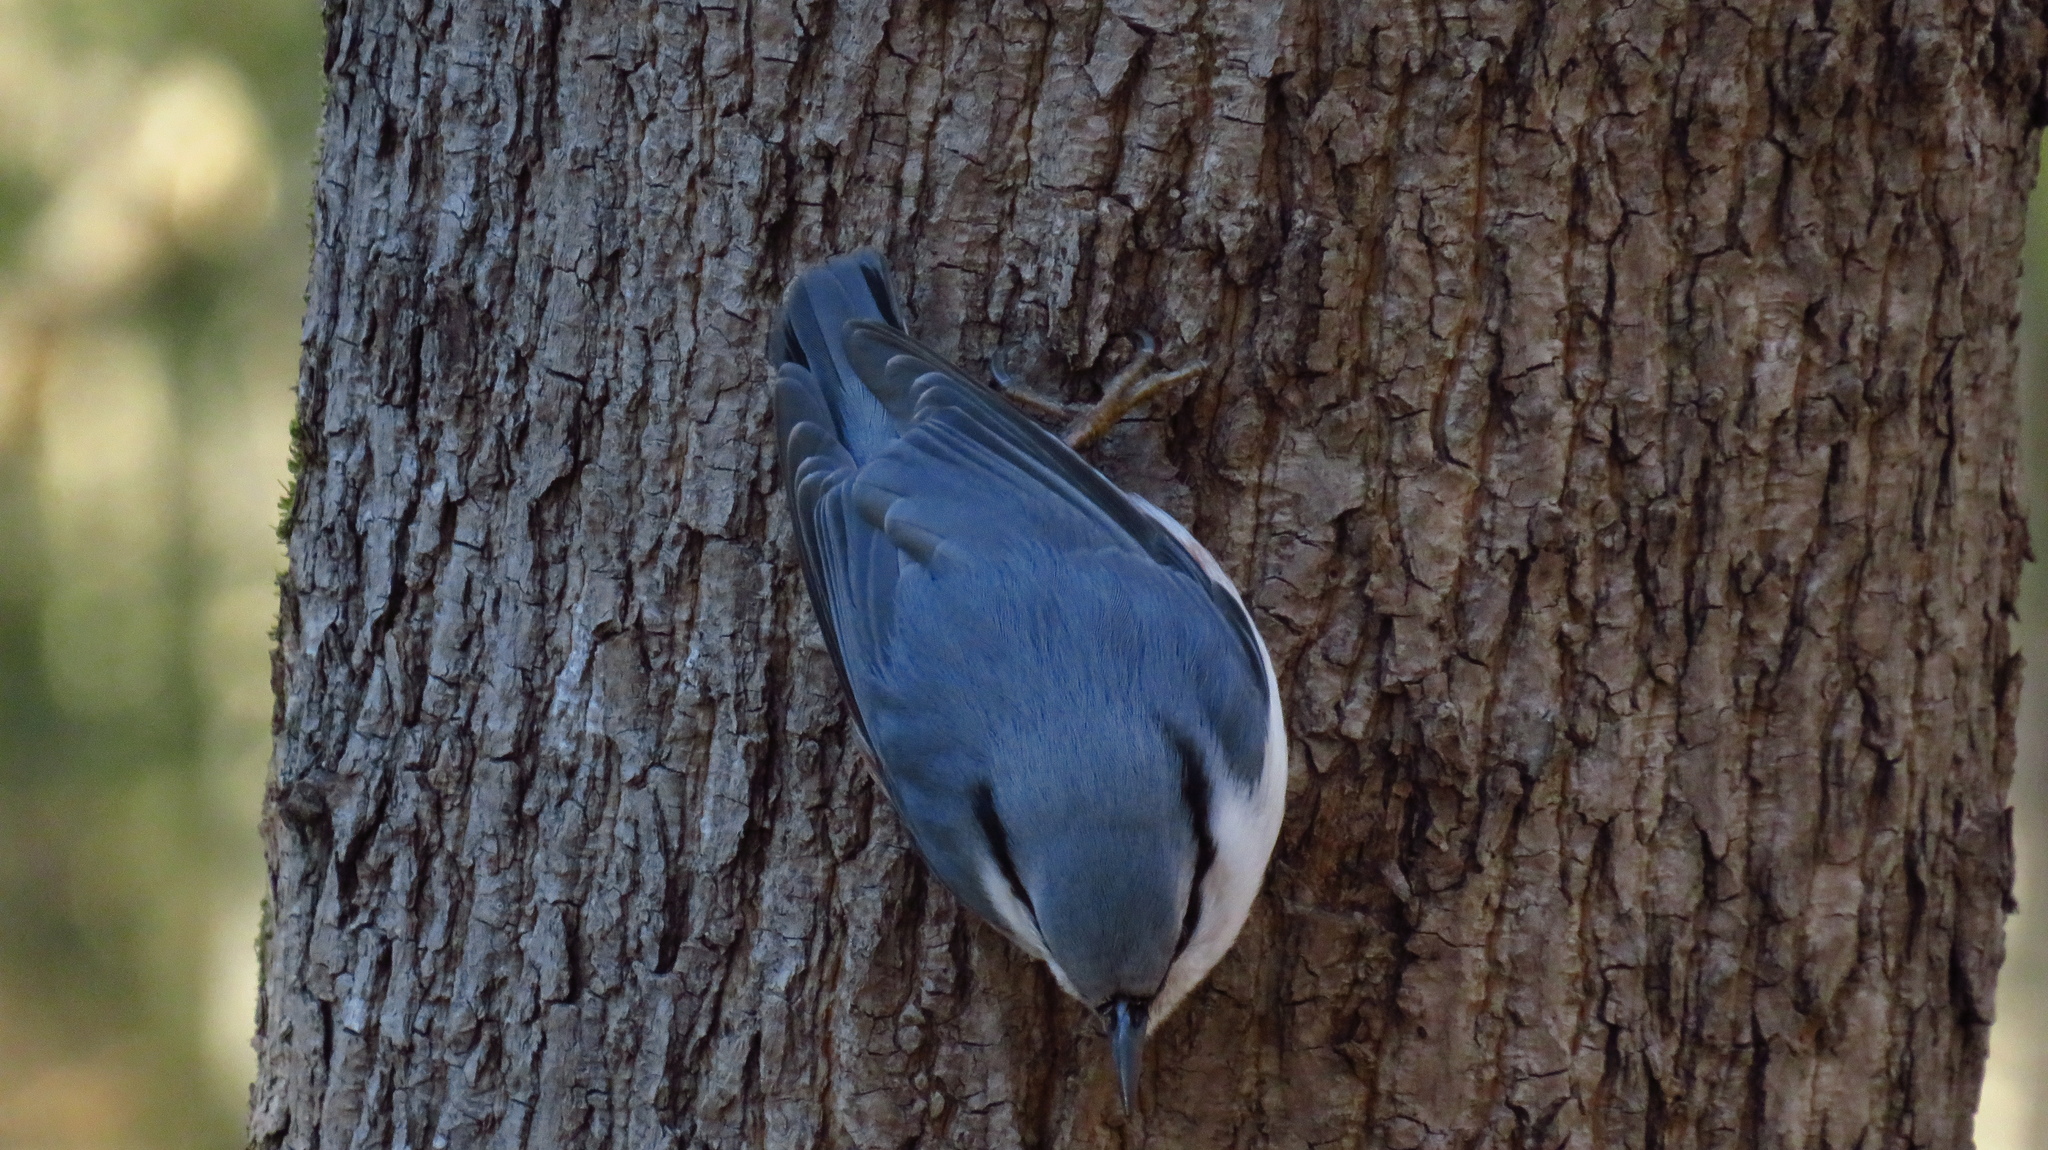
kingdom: Animalia
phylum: Chordata
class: Aves
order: Passeriformes
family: Sittidae
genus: Sitta
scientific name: Sitta europaea
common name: Eurasian nuthatch
